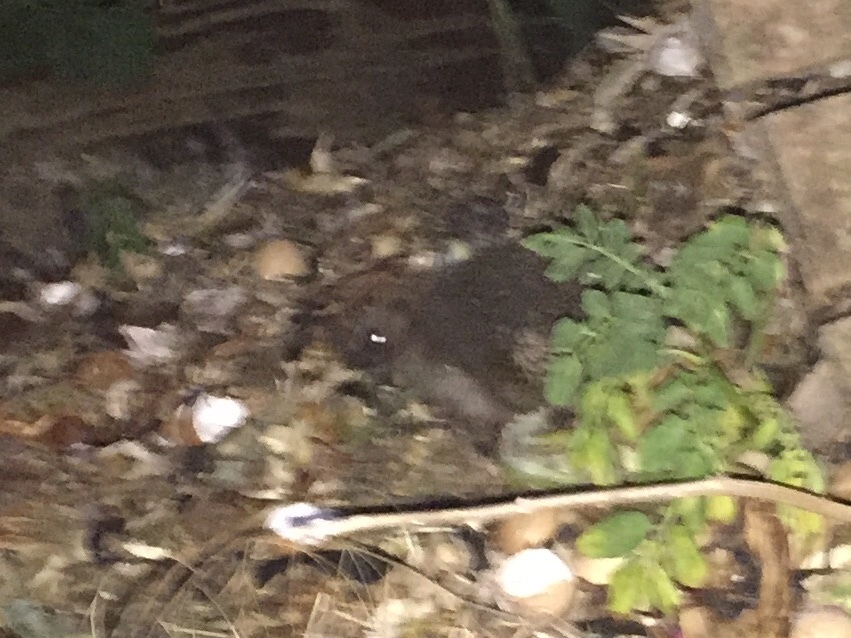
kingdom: Animalia
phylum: Chordata
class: Mammalia
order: Erinaceomorpha
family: Erinaceidae
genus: Erinaceus
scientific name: Erinaceus europaeus
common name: West european hedgehog
